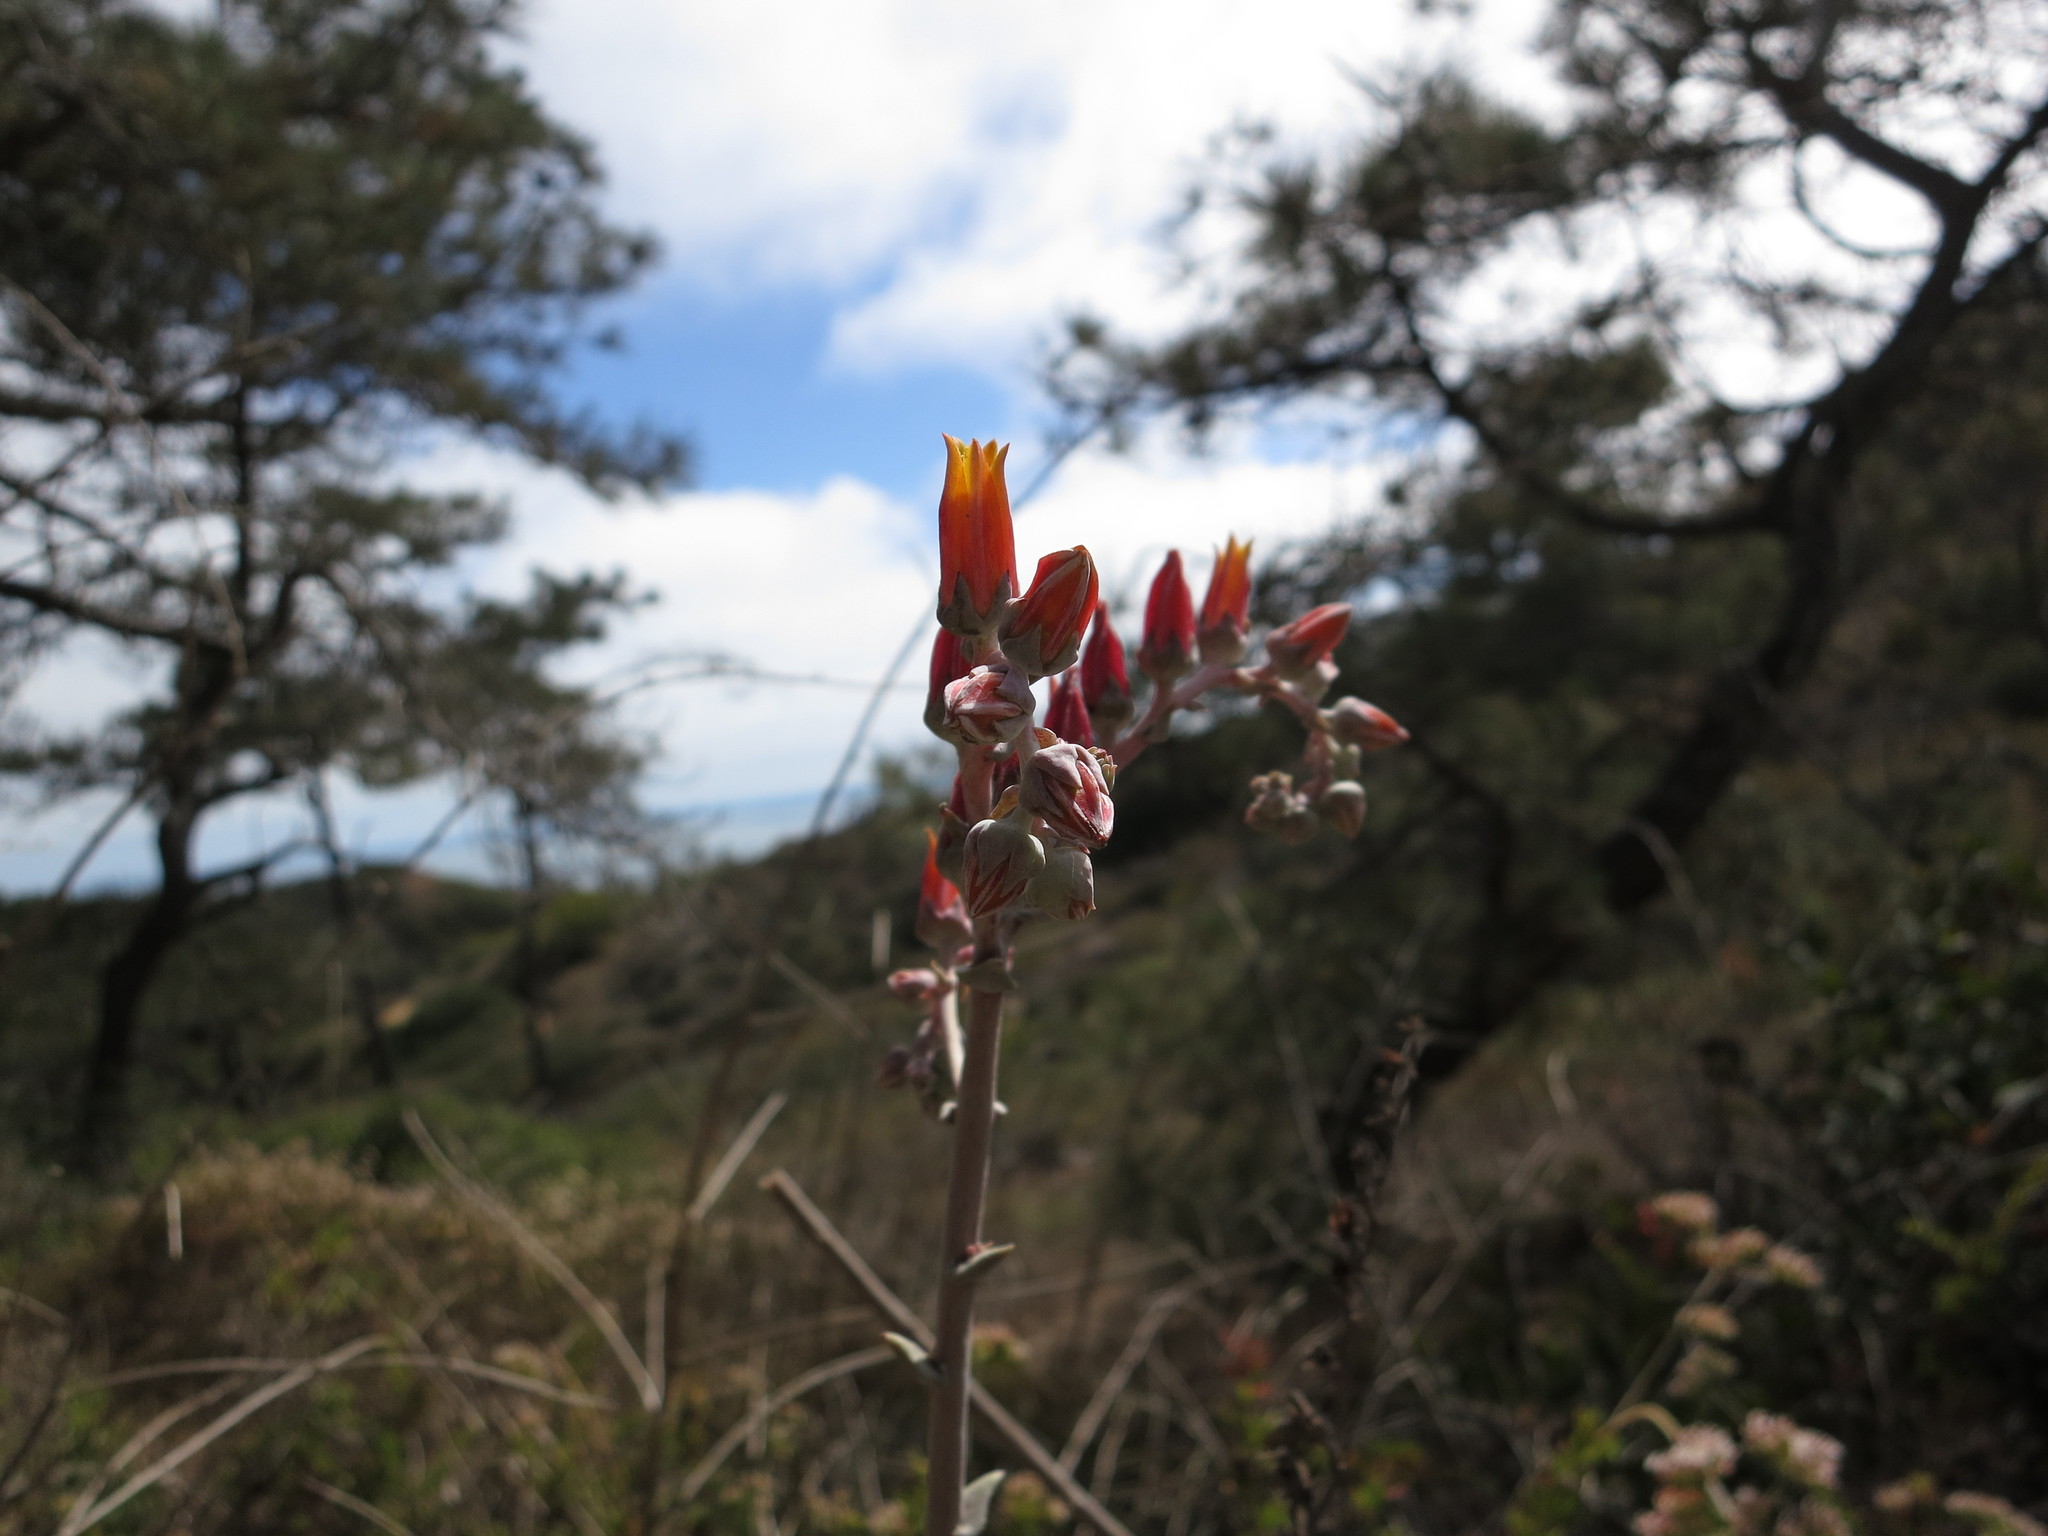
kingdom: Plantae
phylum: Tracheophyta
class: Magnoliopsida
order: Saxifragales
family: Crassulaceae
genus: Dudleya
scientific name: Dudleya lanceolata
